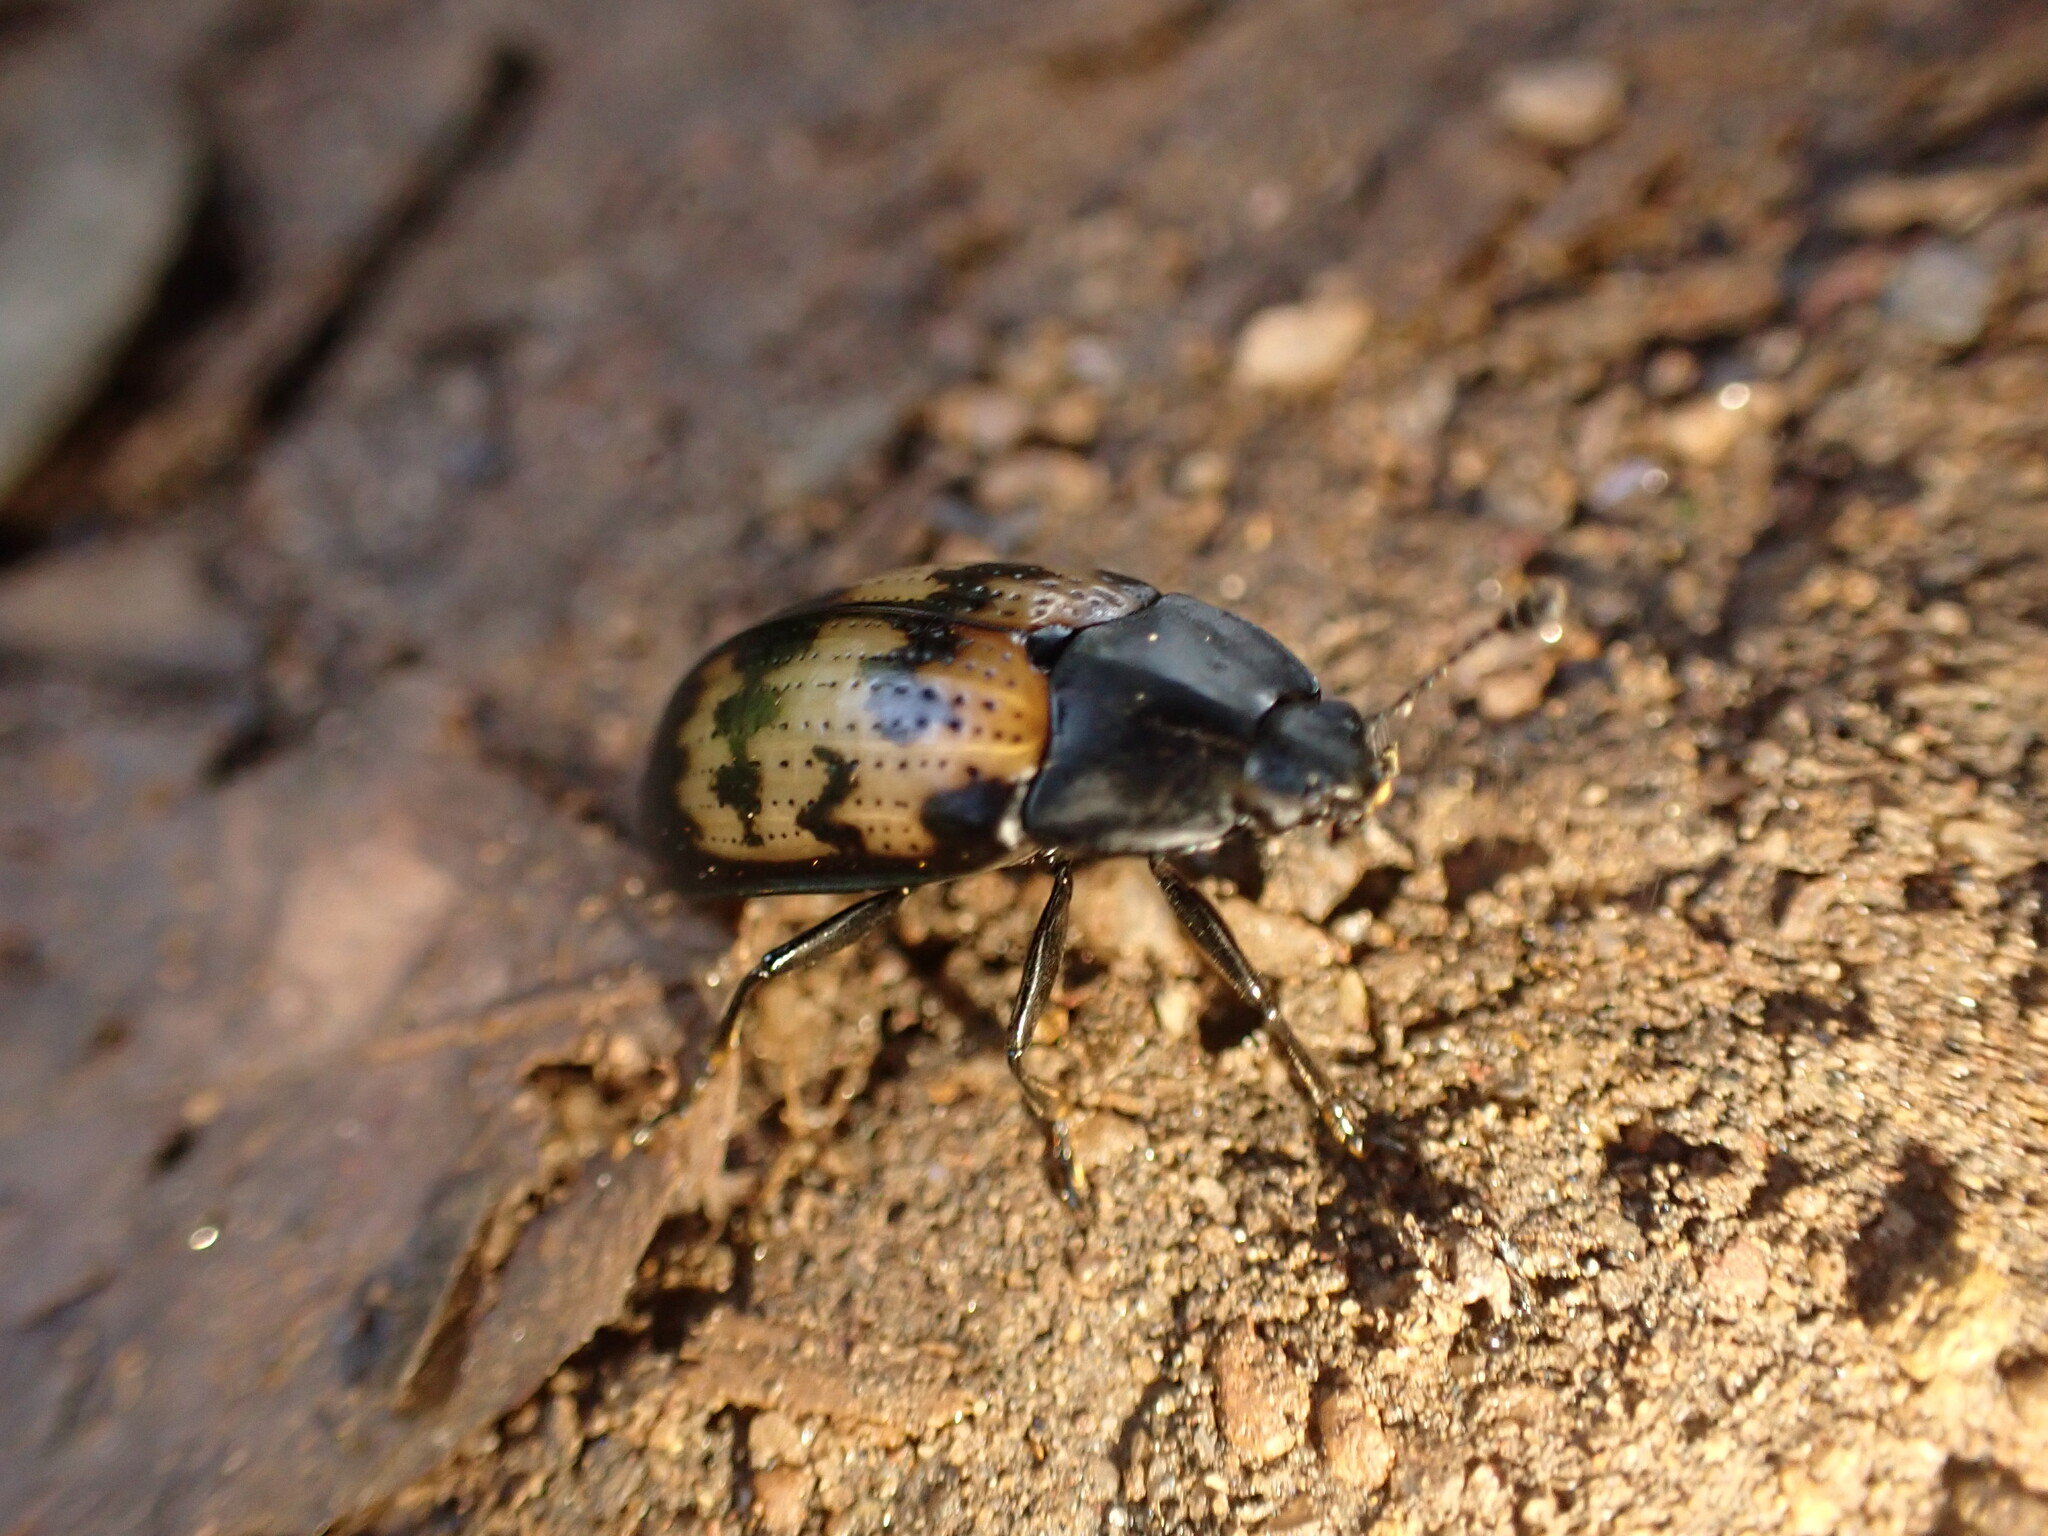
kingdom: Animalia
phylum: Arthropoda
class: Insecta
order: Coleoptera
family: Erotylidae
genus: Megischyrus
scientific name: Megischyrus
